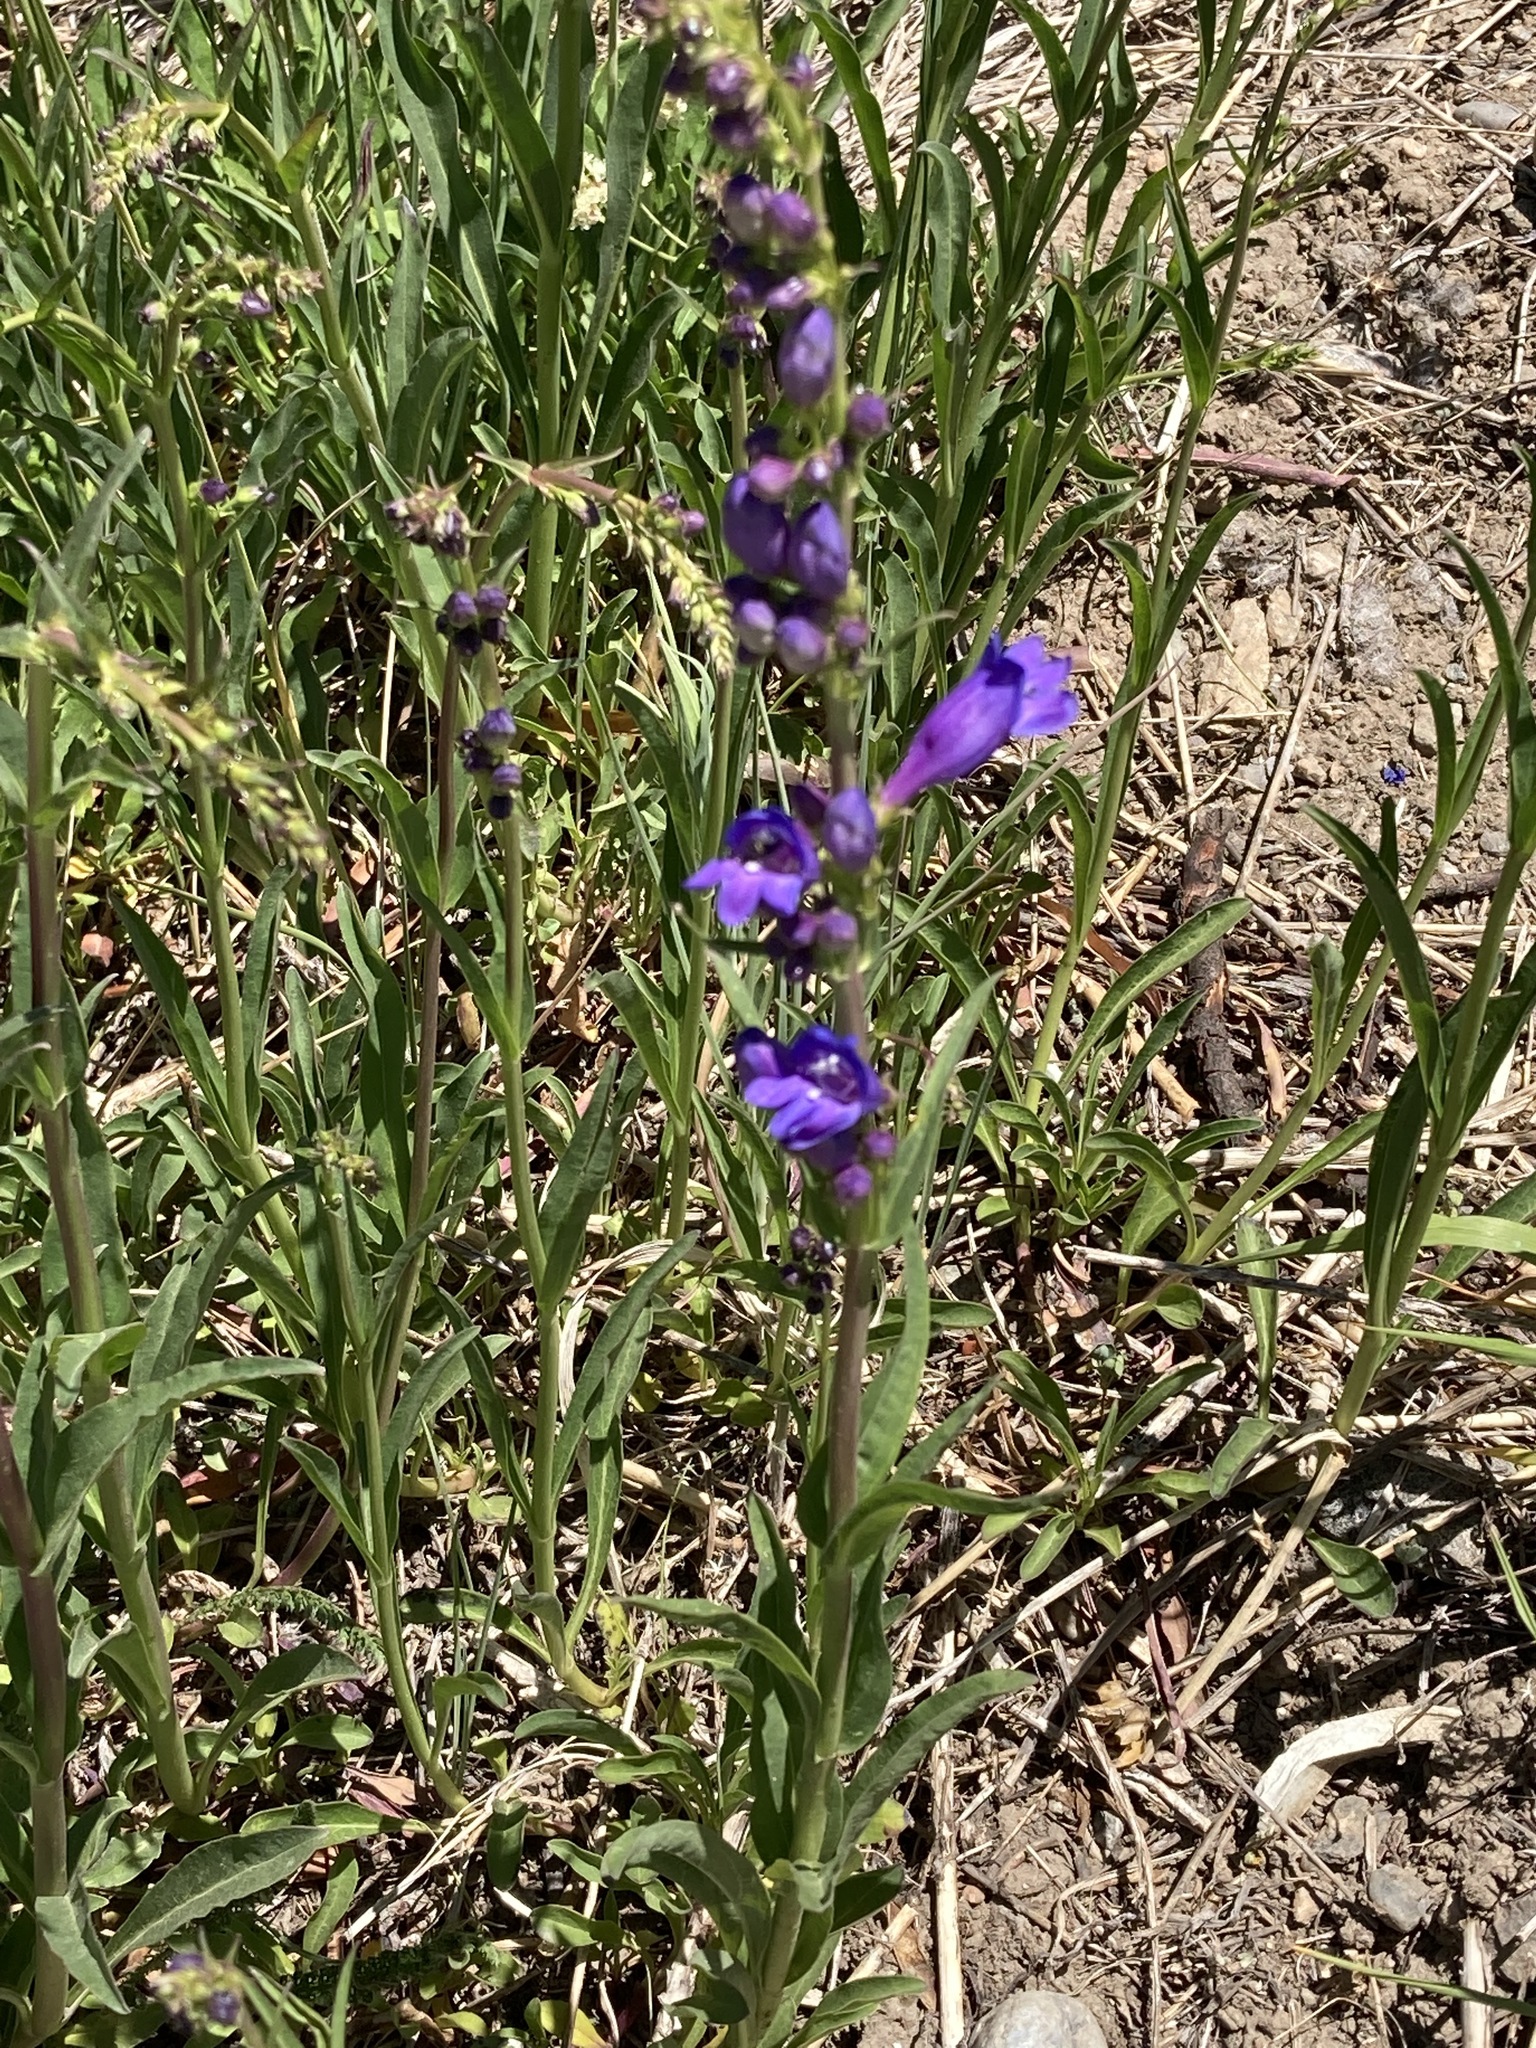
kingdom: Plantae
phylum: Tracheophyta
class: Magnoliopsida
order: Lamiales
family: Plantaginaceae
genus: Penstemon
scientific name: Penstemon strictus
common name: Rocky mountain penstemon
